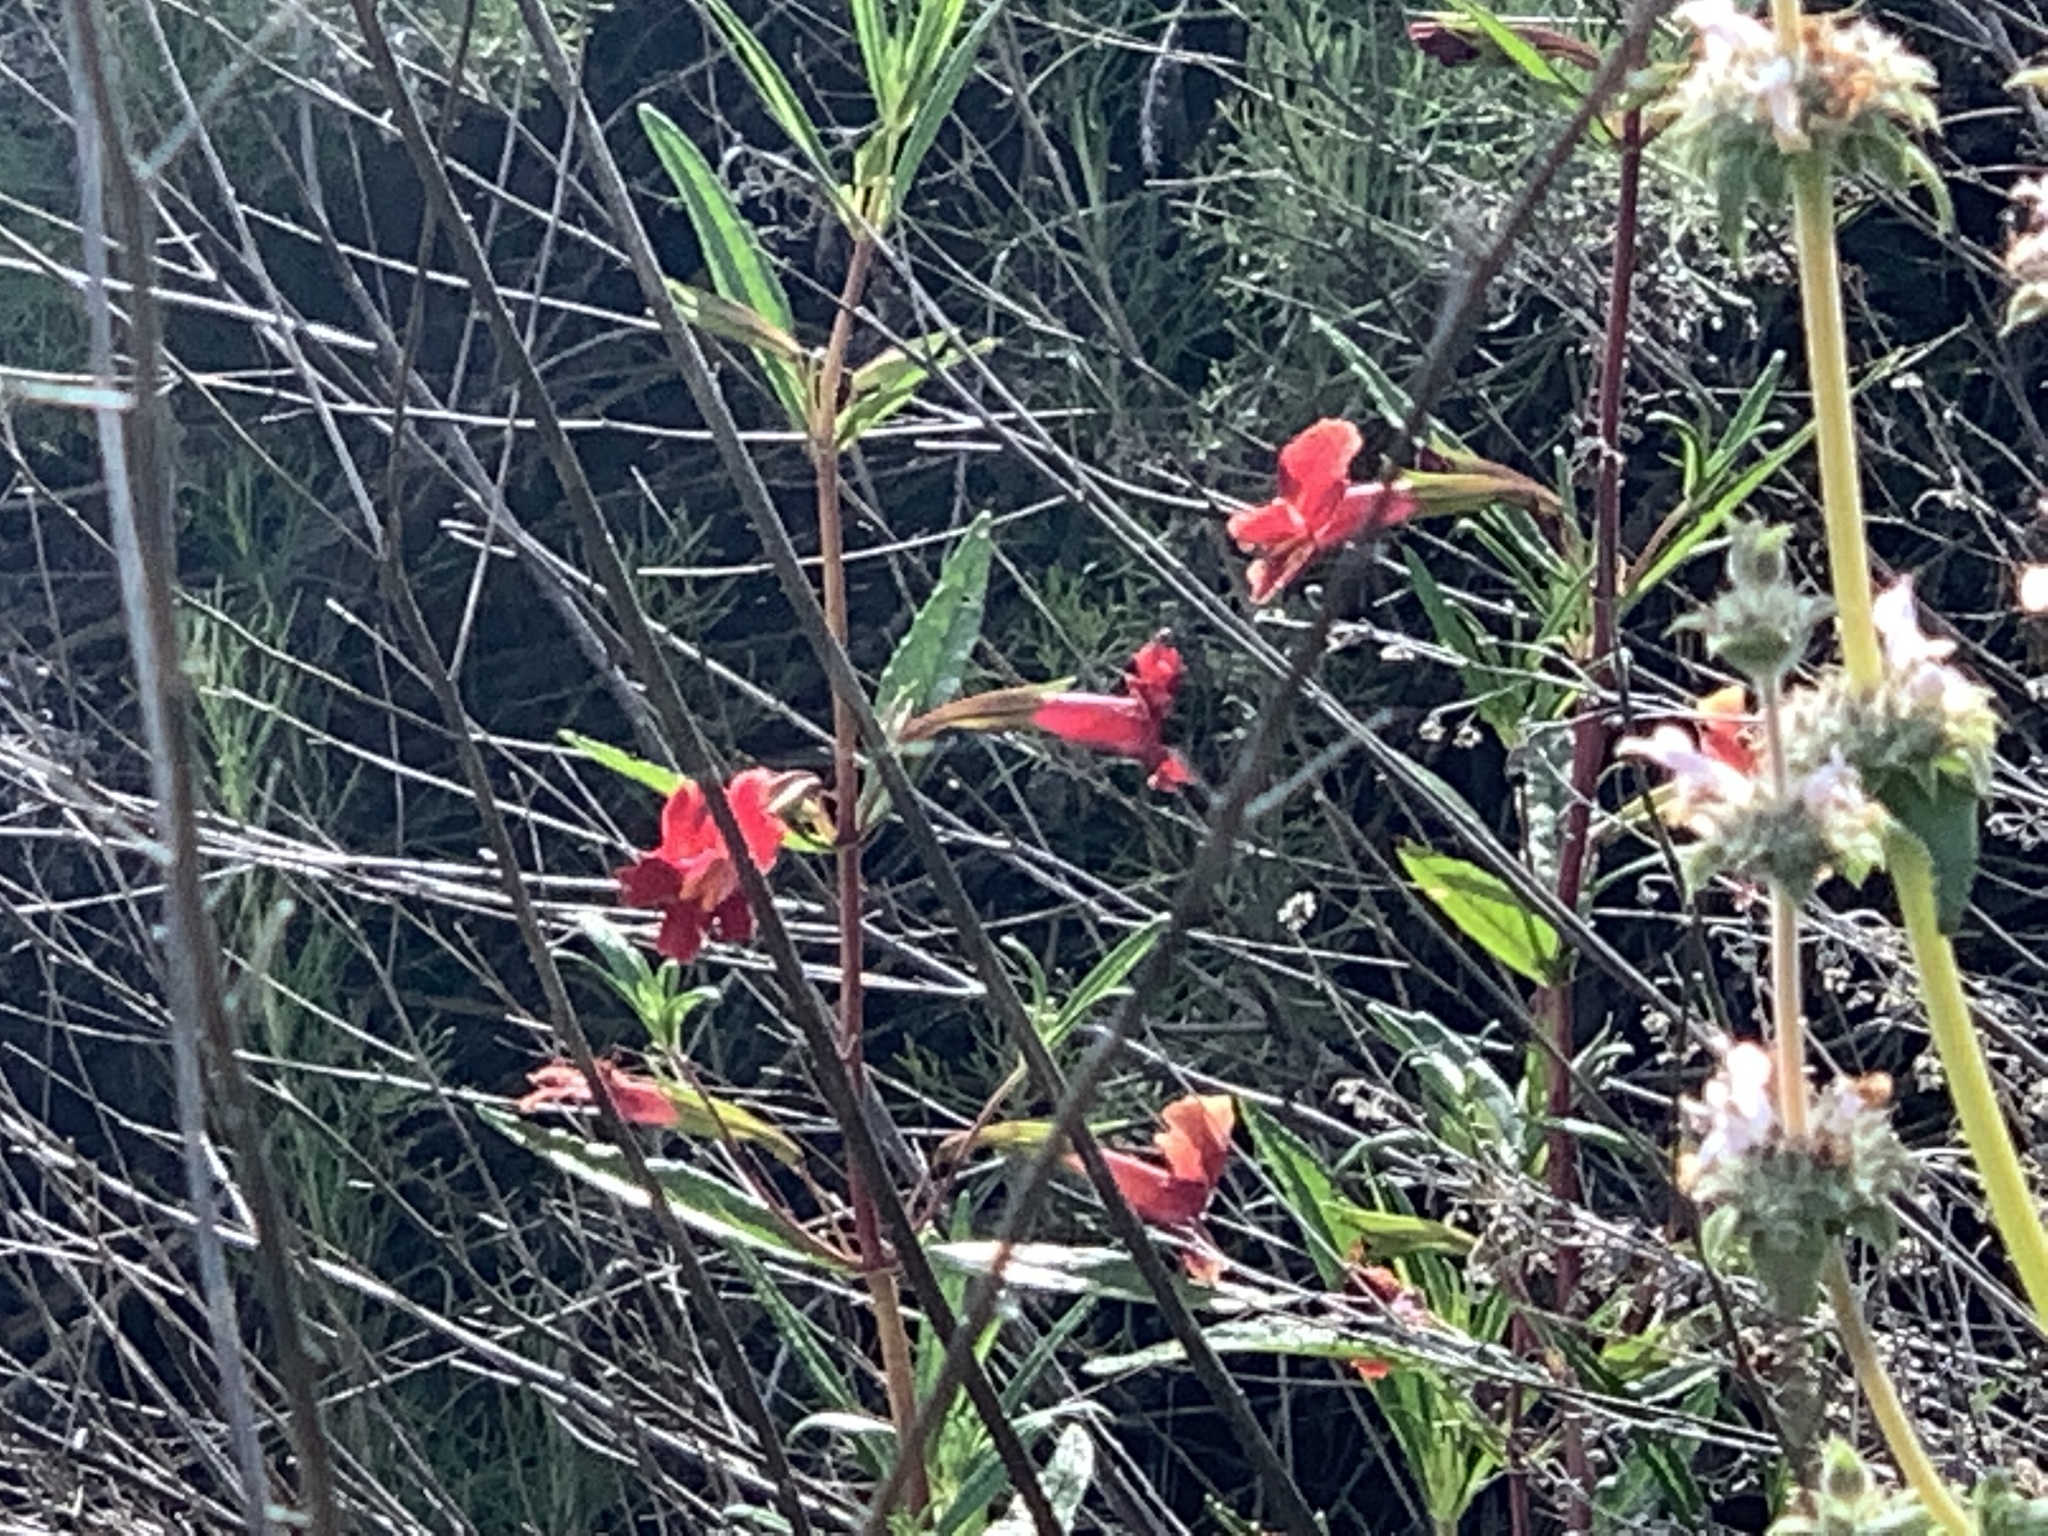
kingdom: Plantae
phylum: Tracheophyta
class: Magnoliopsida
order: Lamiales
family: Phrymaceae
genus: Diplacus
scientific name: Diplacus puniceus
